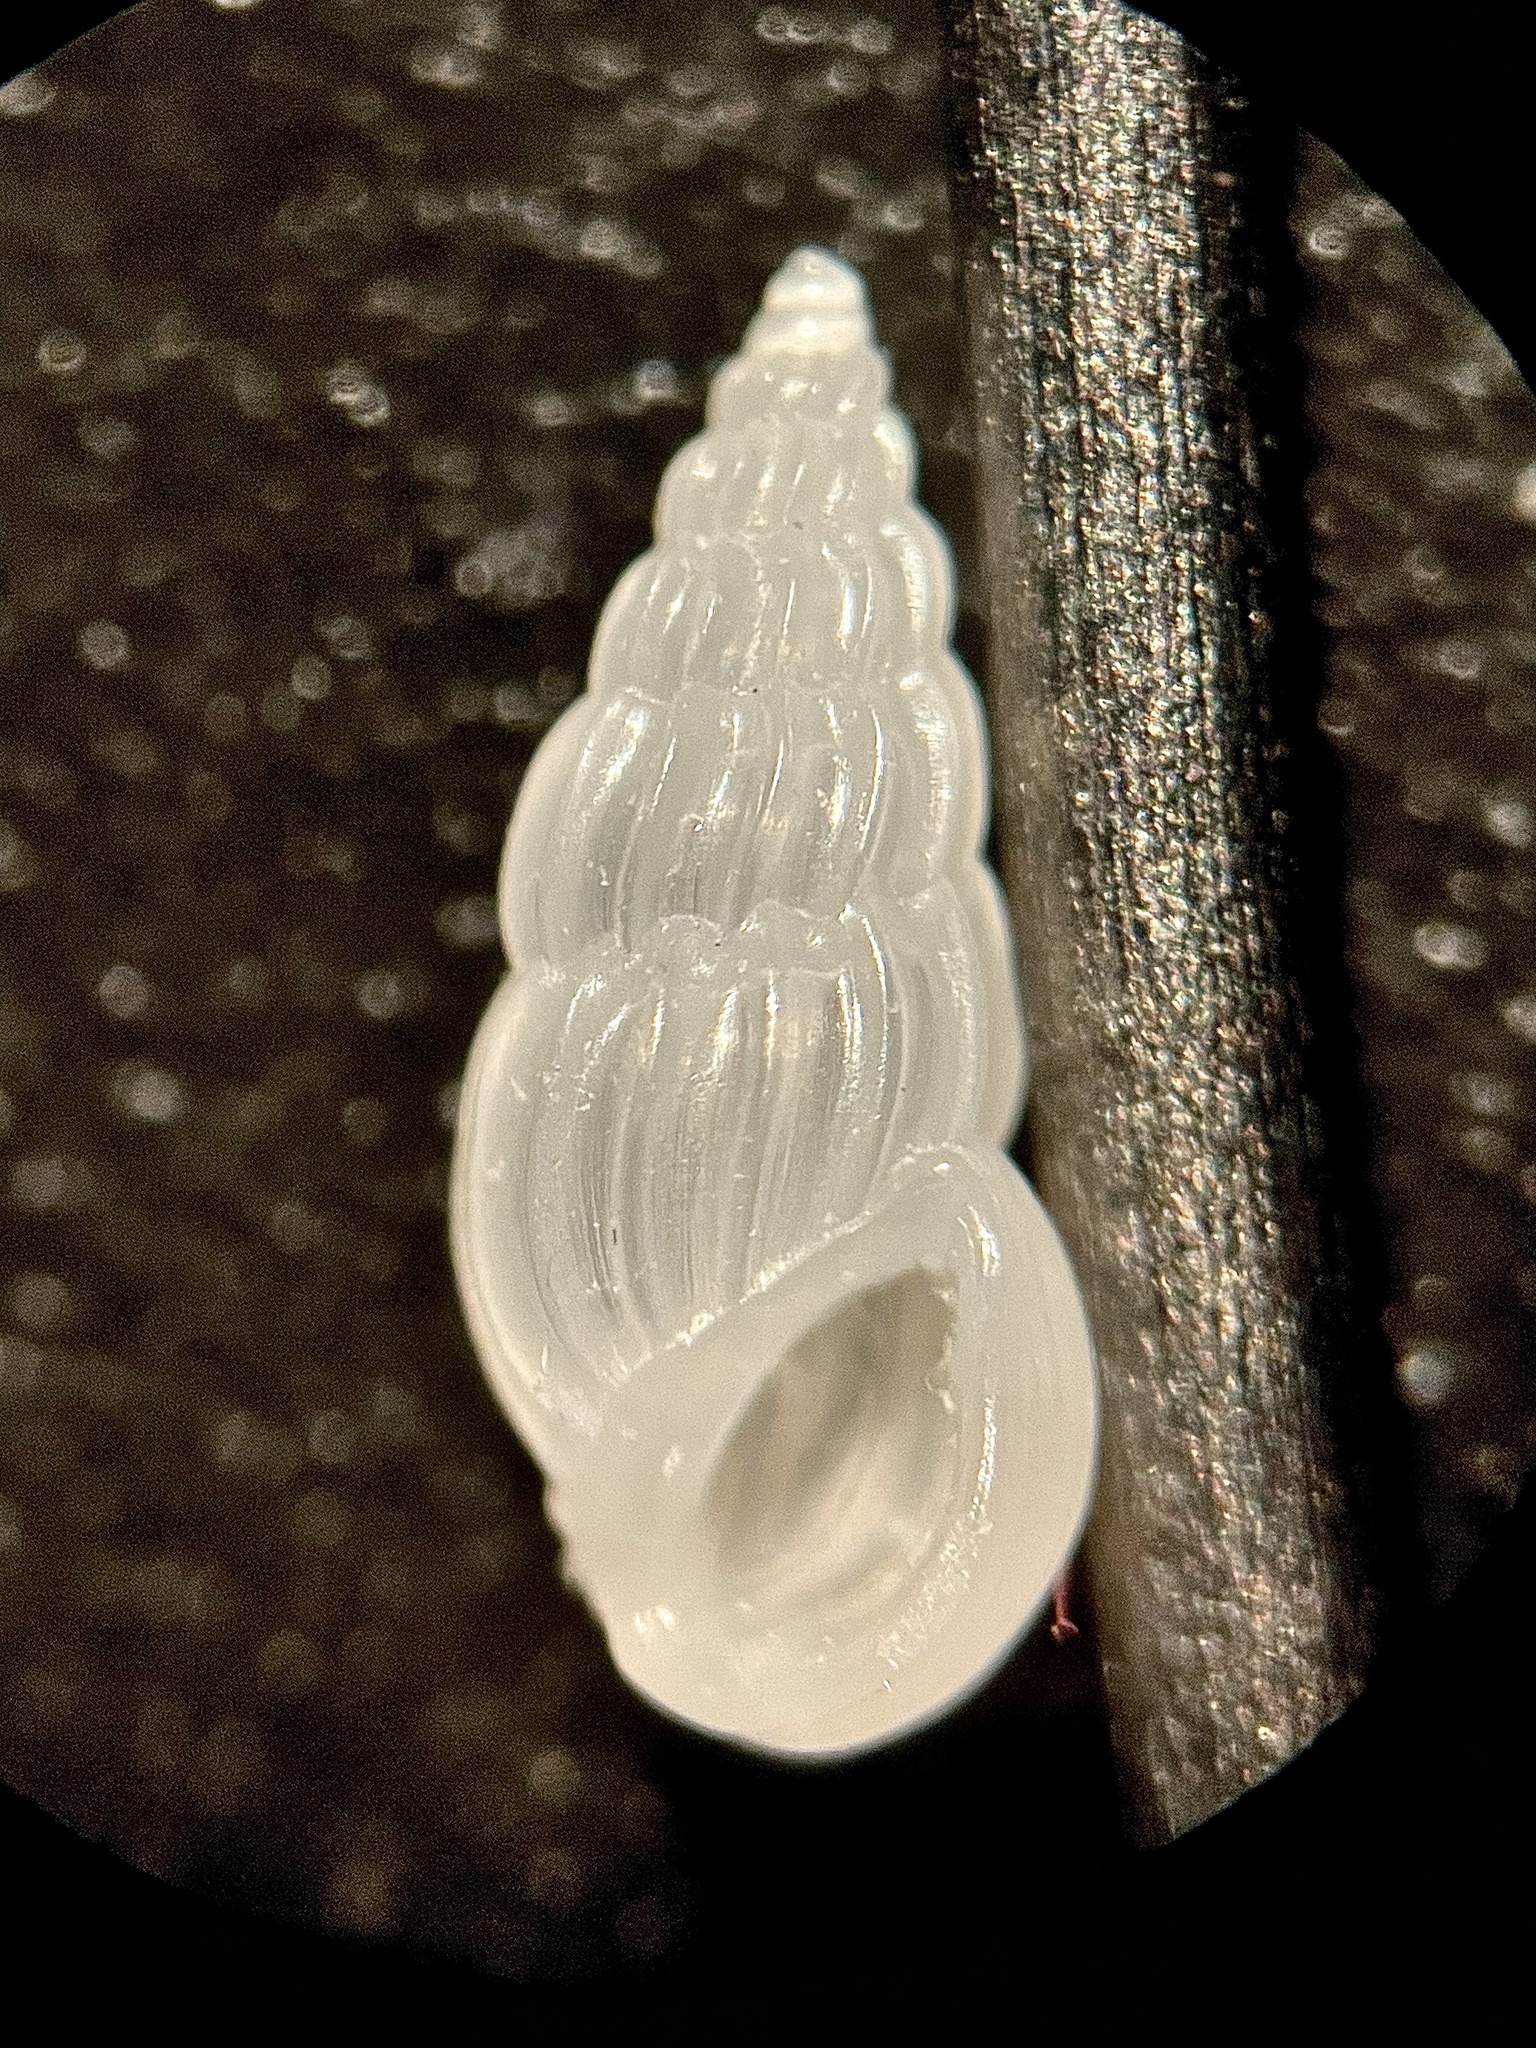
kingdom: Animalia
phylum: Mollusca
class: Gastropoda
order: Littorinimorpha
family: Zebinidae
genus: Schwartziella
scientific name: Schwartziella catesbyana
